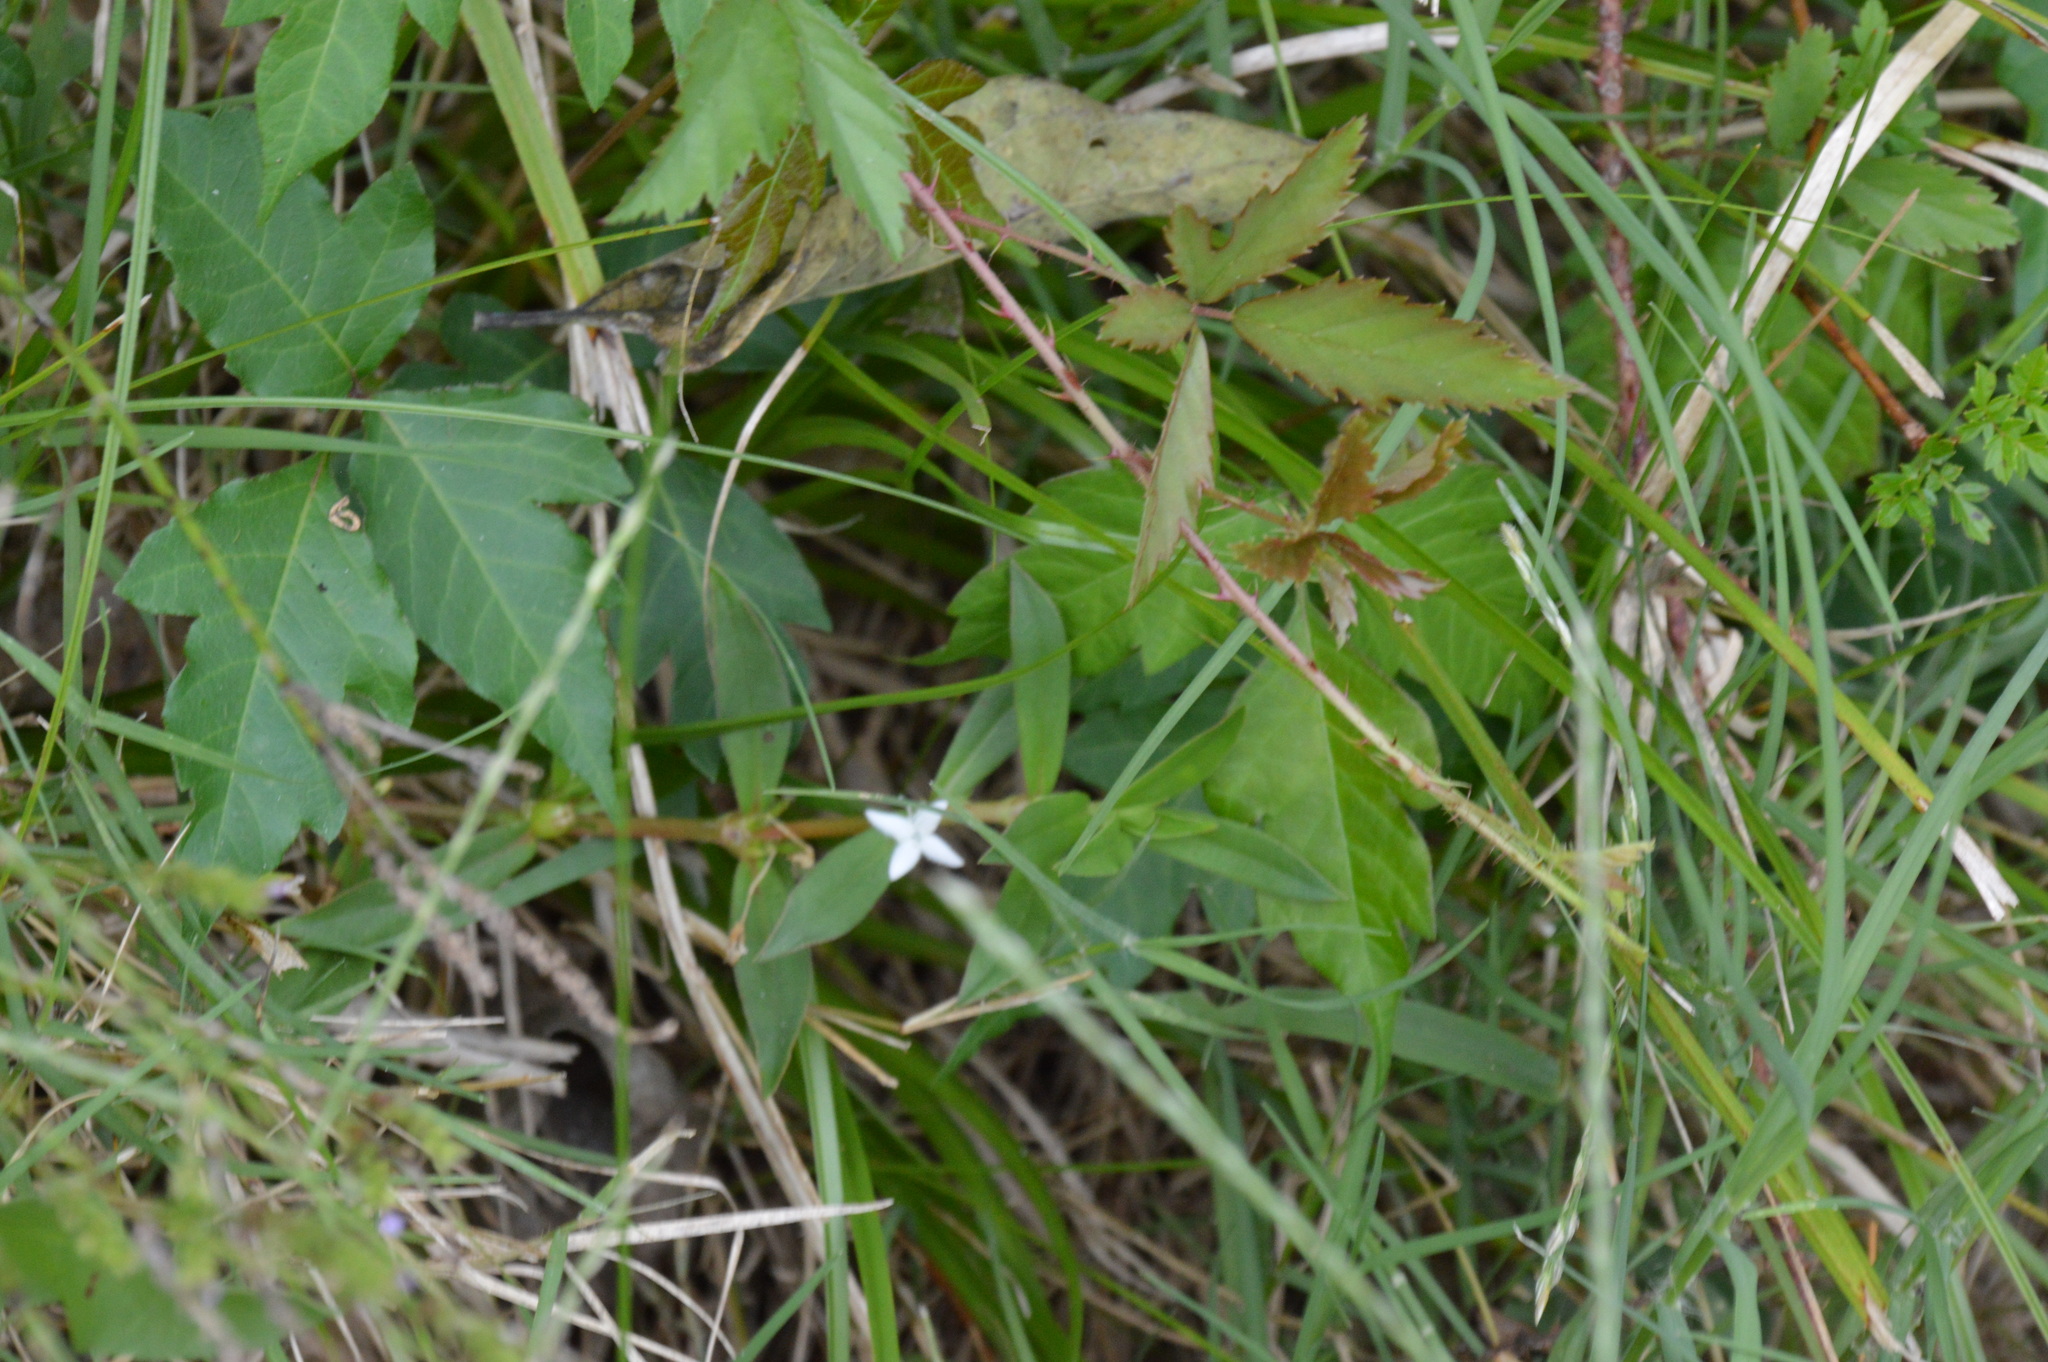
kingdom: Plantae
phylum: Tracheophyta
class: Magnoliopsida
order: Gentianales
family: Rubiaceae
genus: Diodia
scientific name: Diodia virginiana
